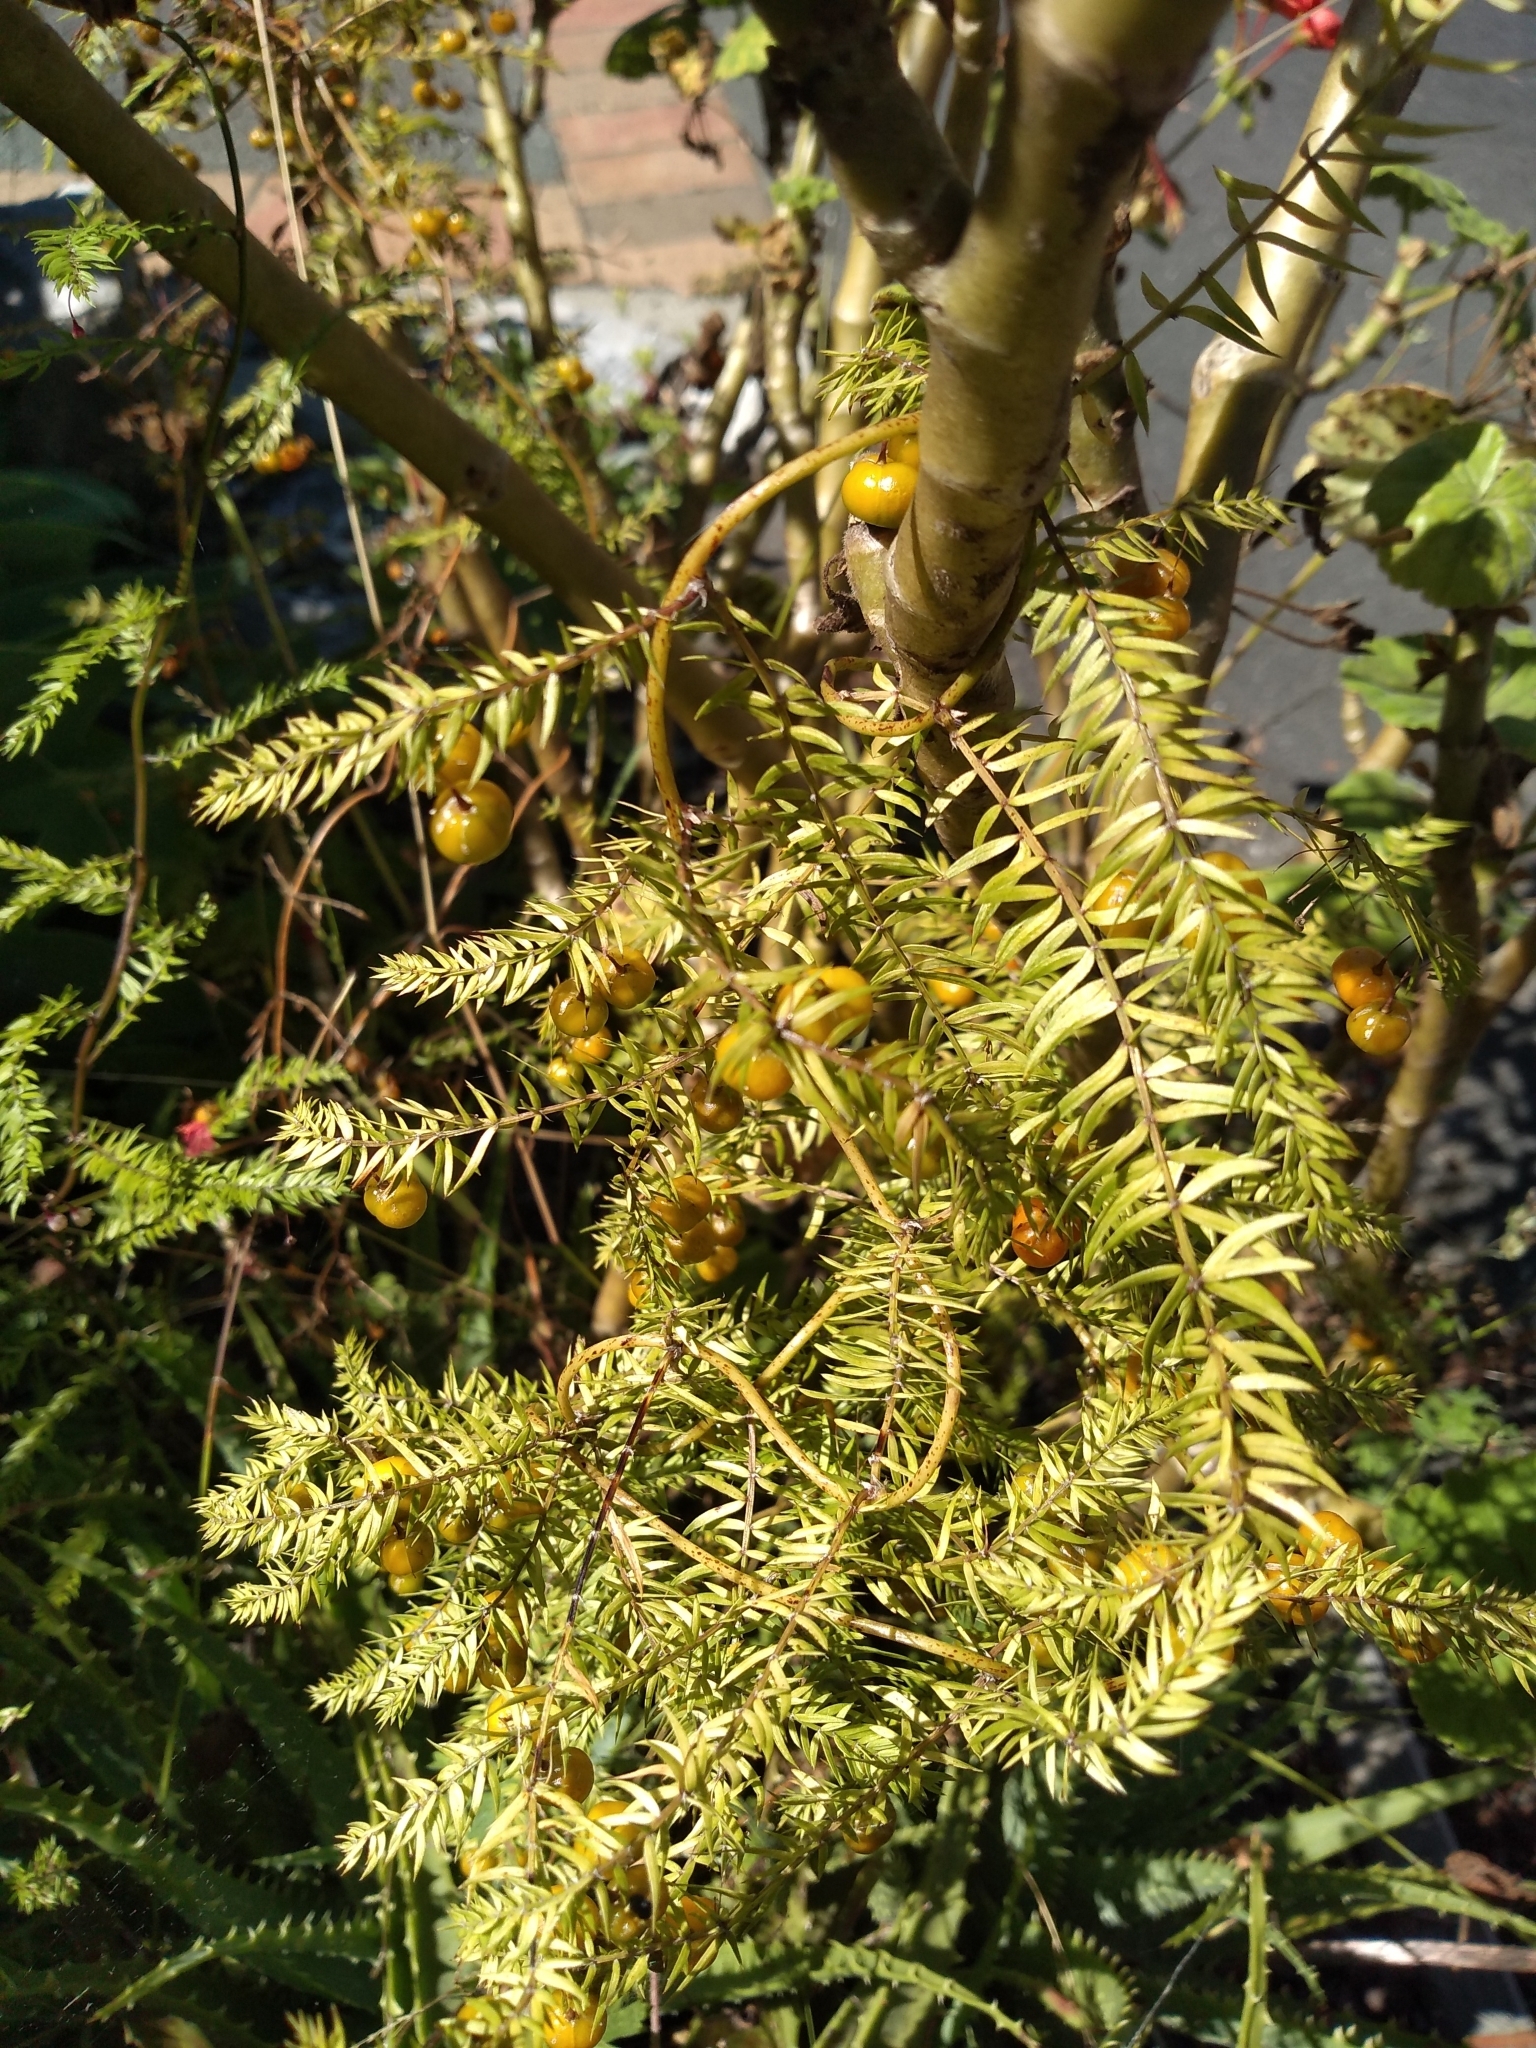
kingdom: Plantae
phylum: Tracheophyta
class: Liliopsida
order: Asparagales
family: Asparagaceae
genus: Asparagus
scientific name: Asparagus scandens
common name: Asparagus-fern
